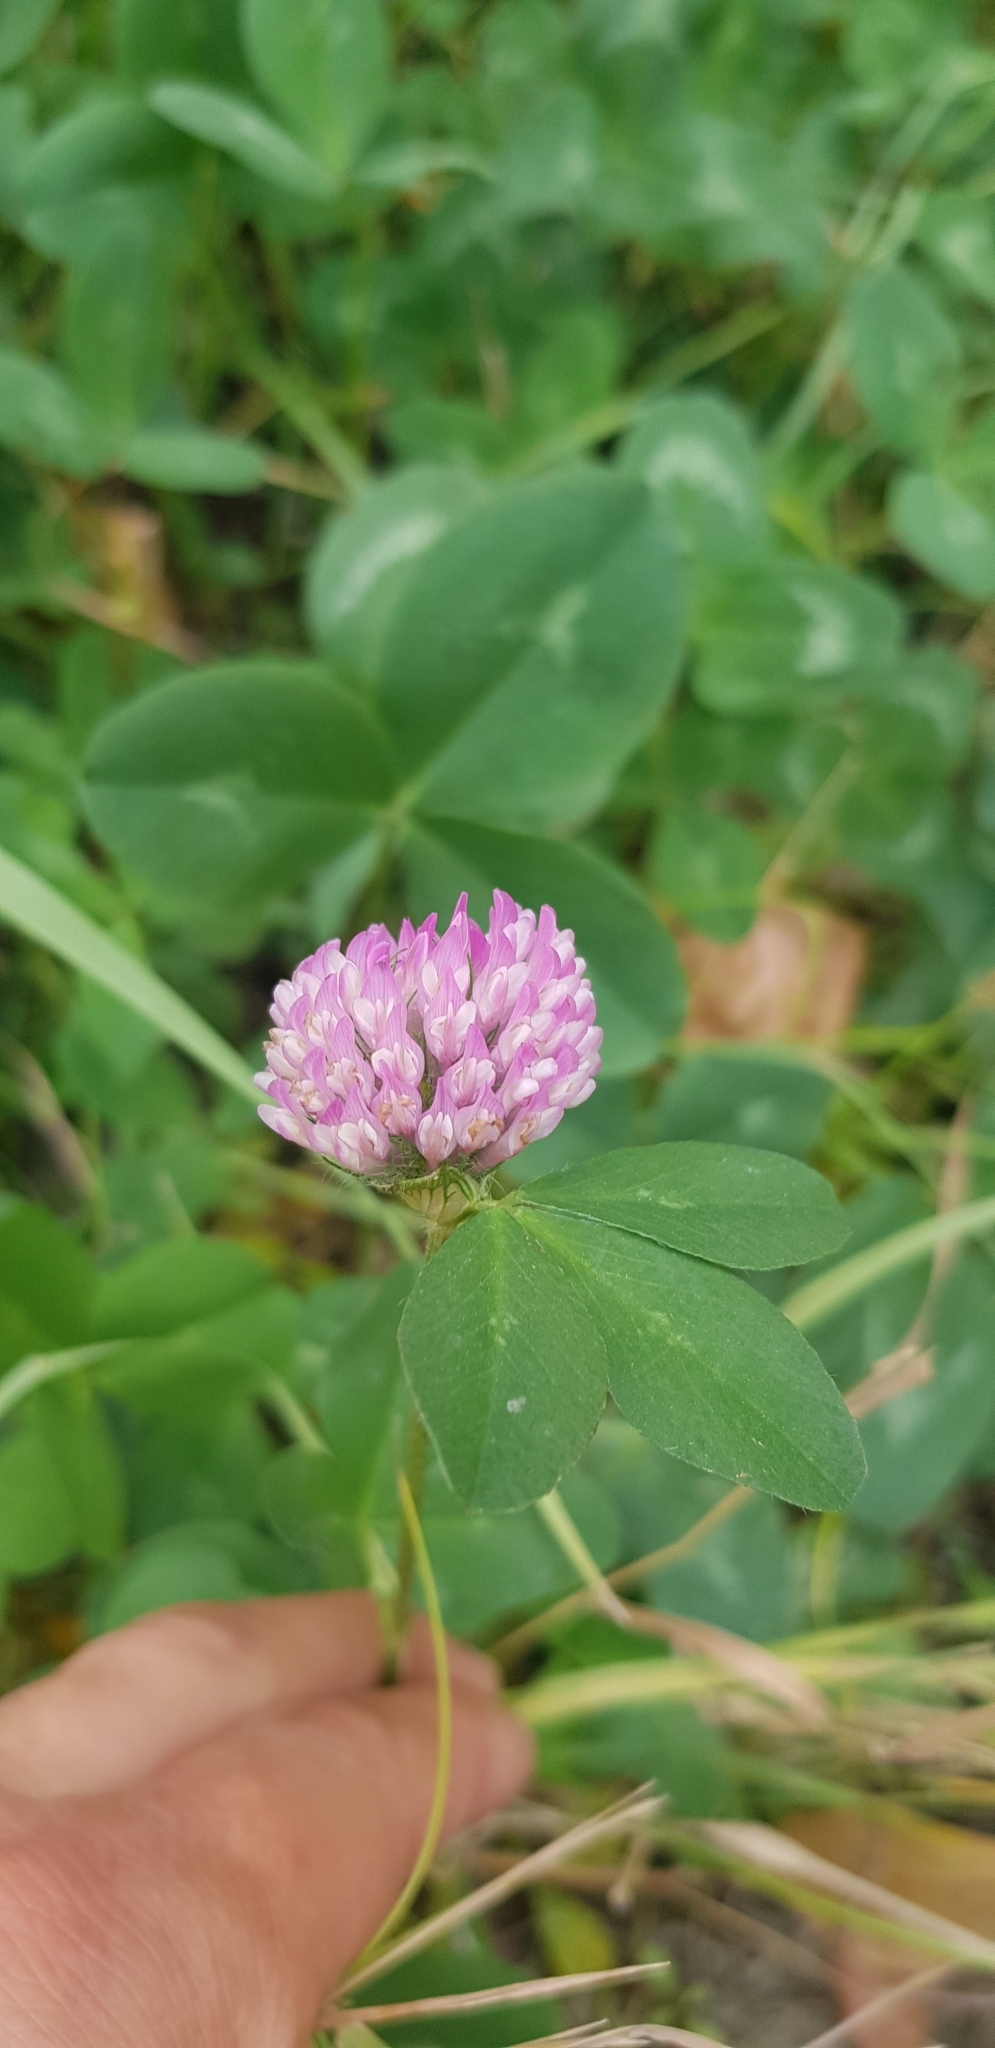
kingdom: Plantae
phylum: Tracheophyta
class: Magnoliopsida
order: Fabales
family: Fabaceae
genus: Trifolium
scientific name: Trifolium pratense
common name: Red clover
